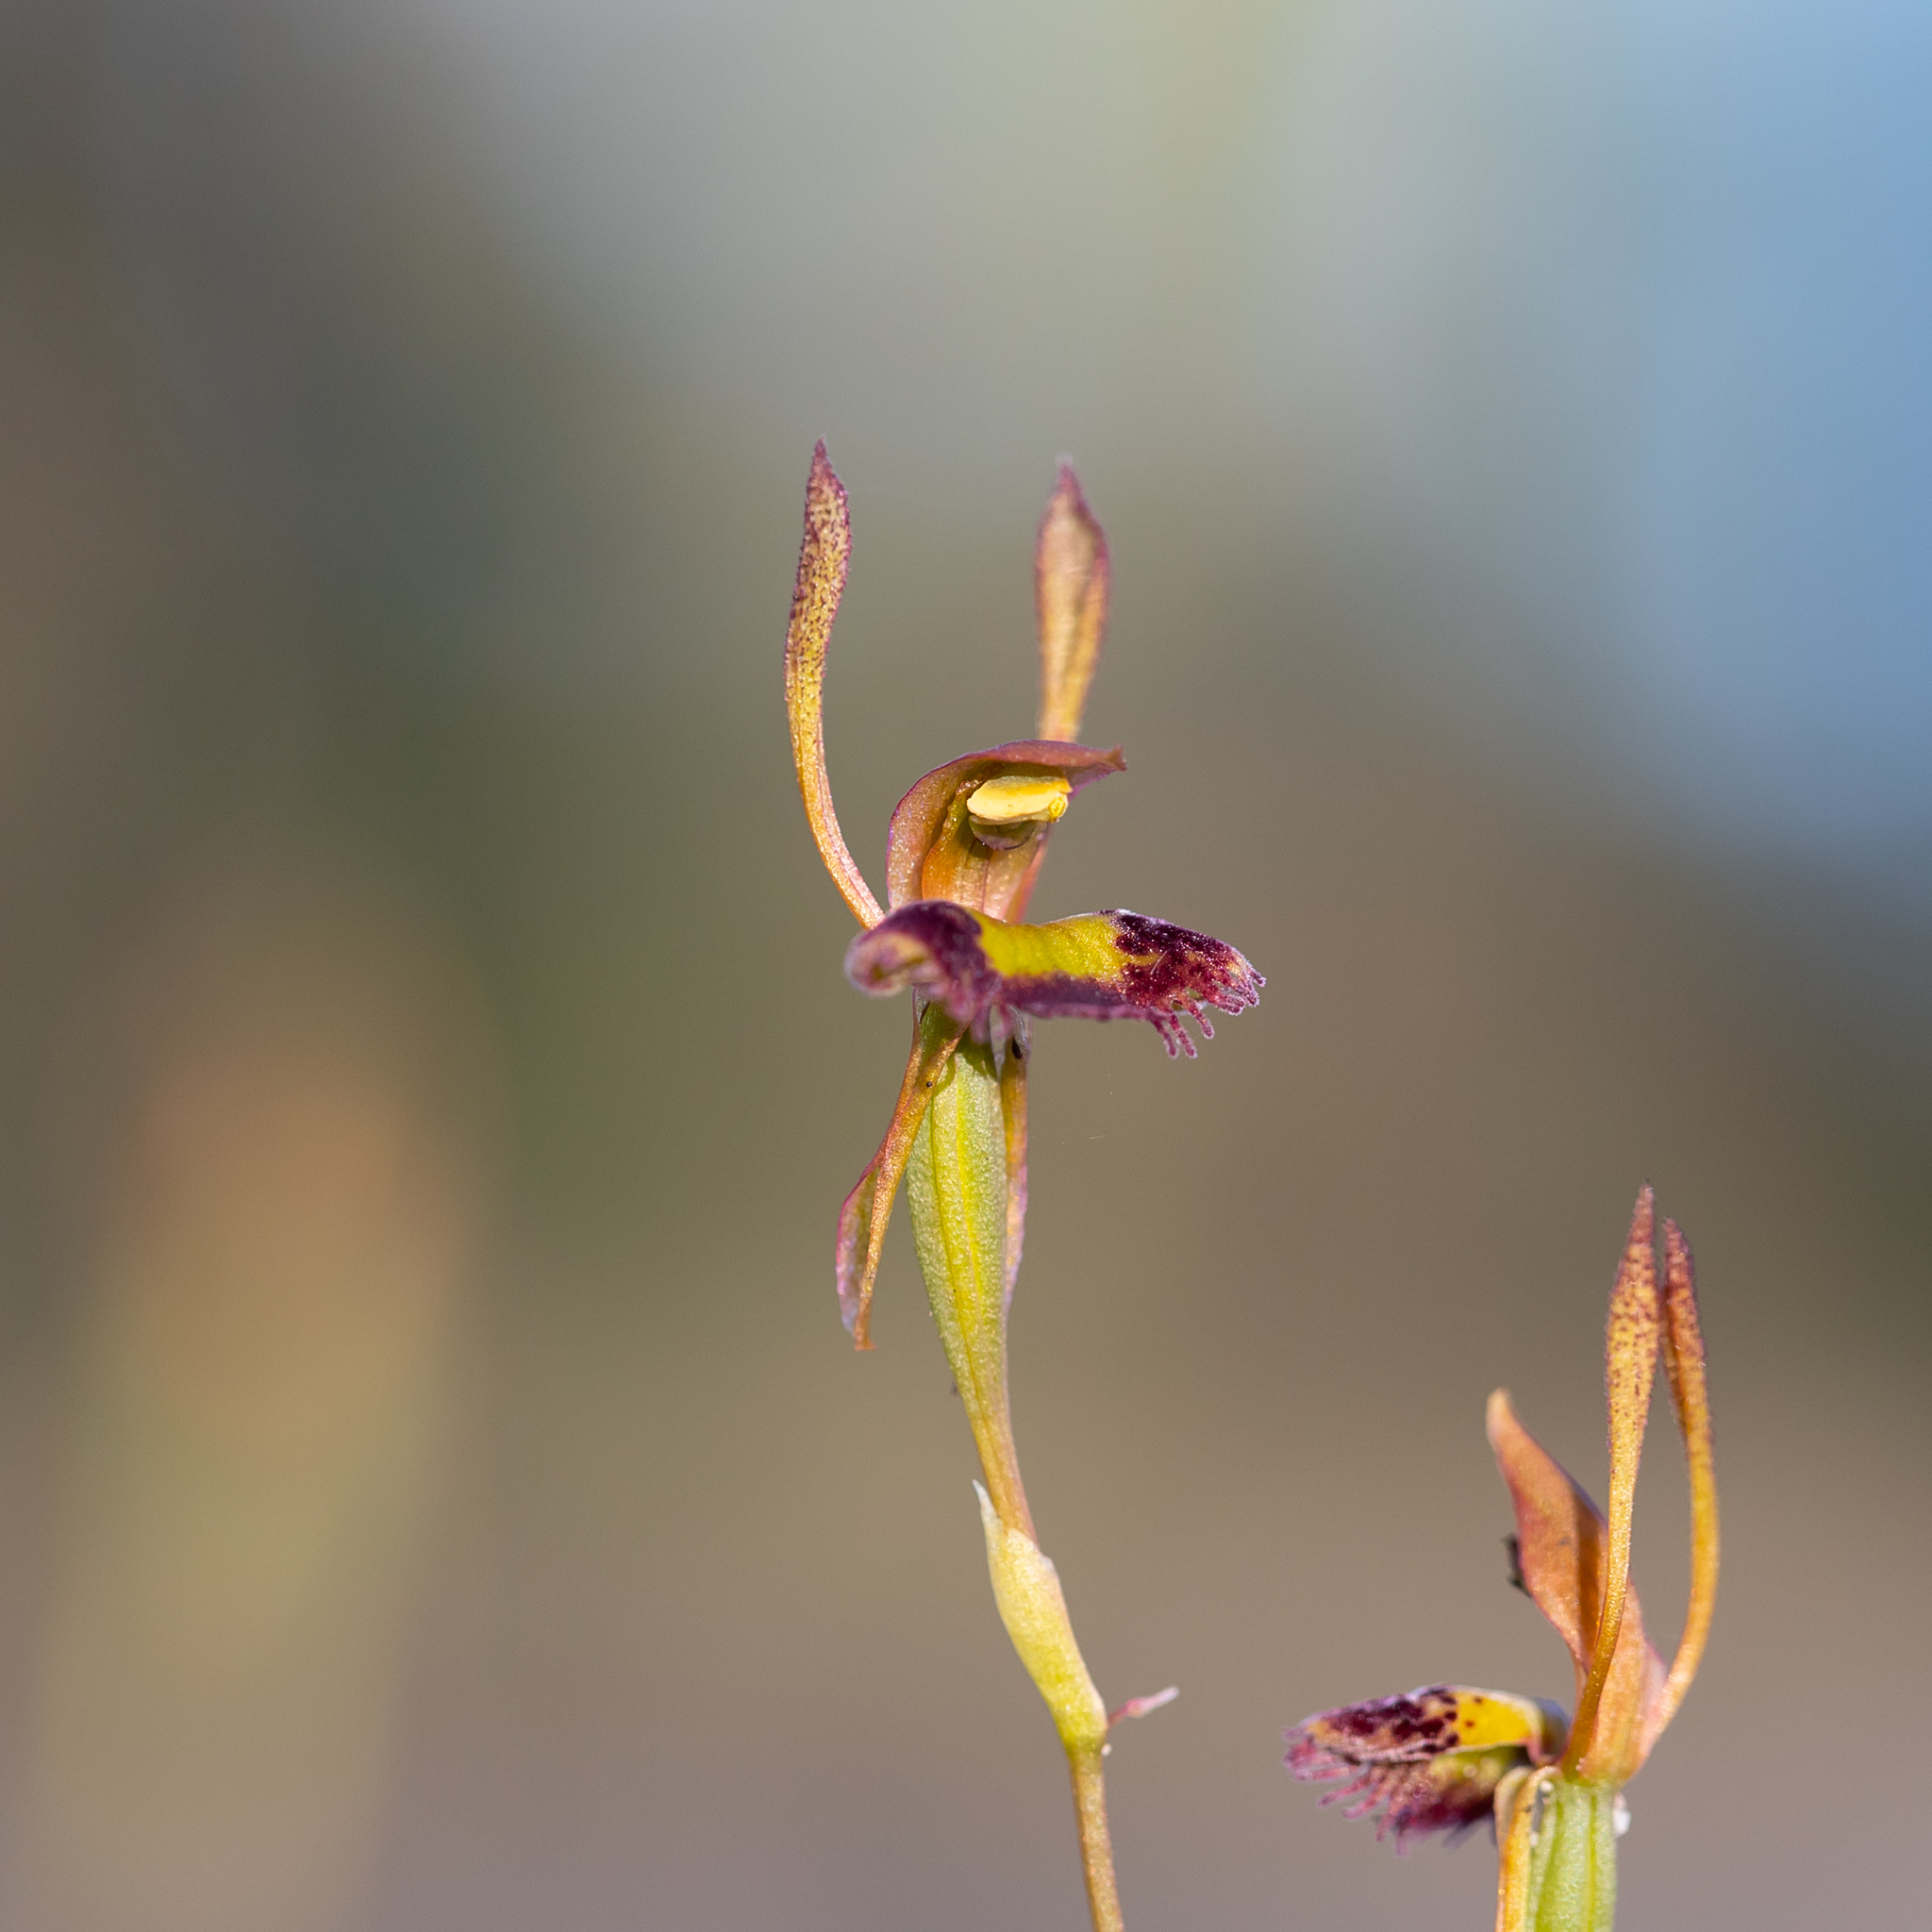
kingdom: Plantae
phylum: Tracheophyta
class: Liliopsida
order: Asparagales
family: Orchidaceae
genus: Leporella
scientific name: Leporella fimbriata
